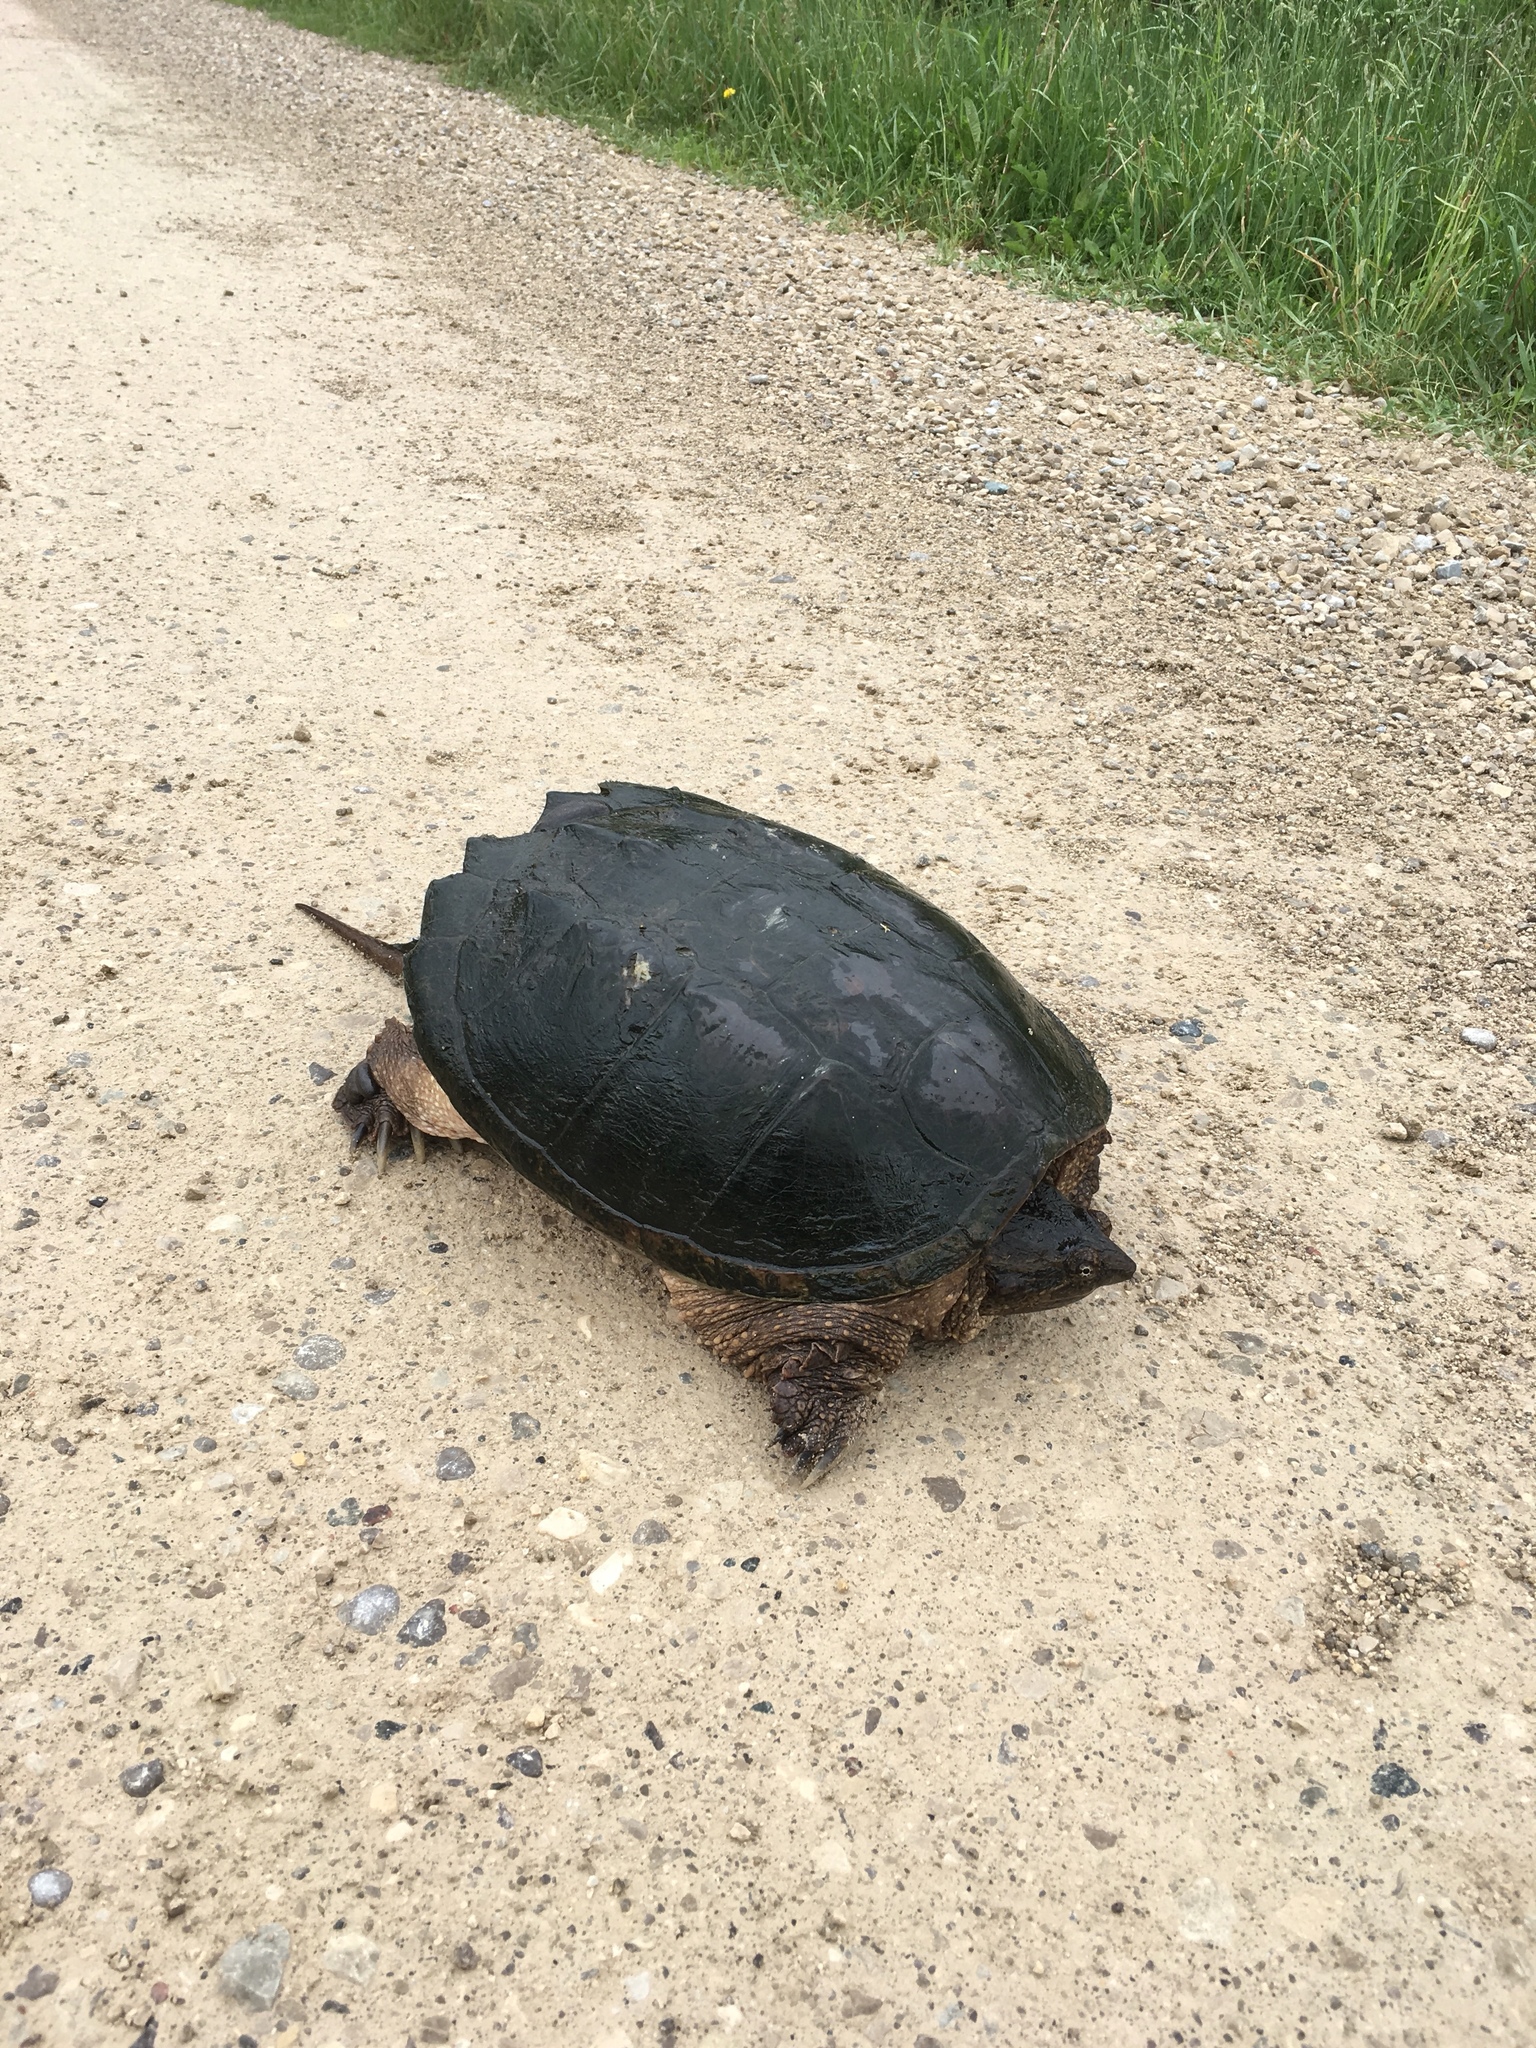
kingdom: Animalia
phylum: Chordata
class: Testudines
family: Chelydridae
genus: Chelydra
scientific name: Chelydra serpentina
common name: Common snapping turtle
